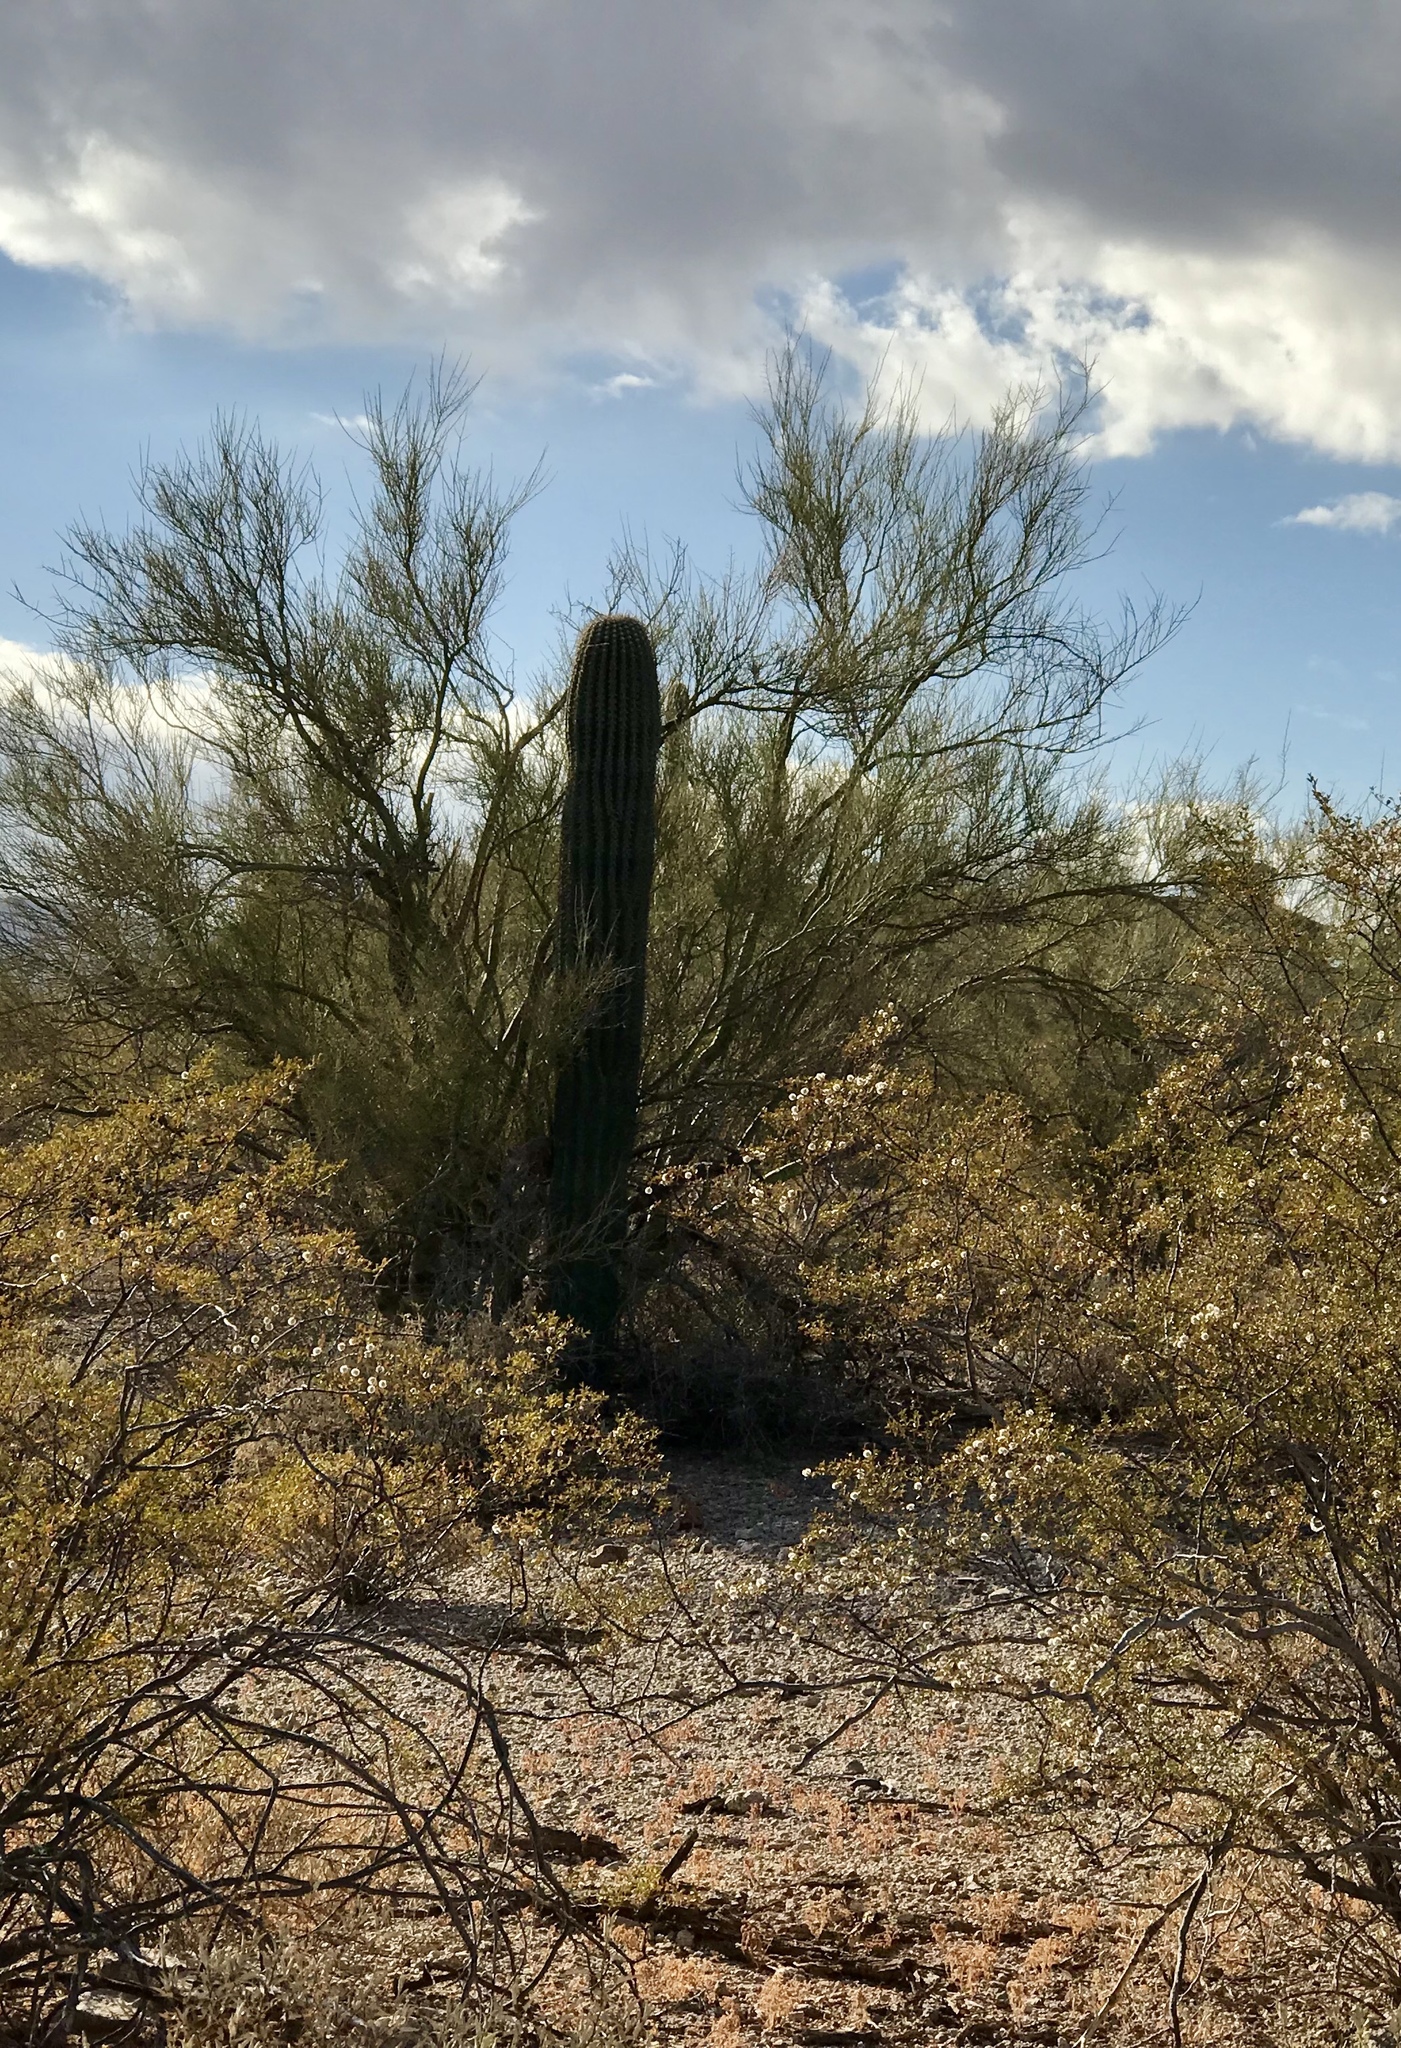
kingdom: Plantae
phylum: Tracheophyta
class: Magnoliopsida
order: Caryophyllales
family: Cactaceae
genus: Carnegiea
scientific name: Carnegiea gigantea
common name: Saguaro
